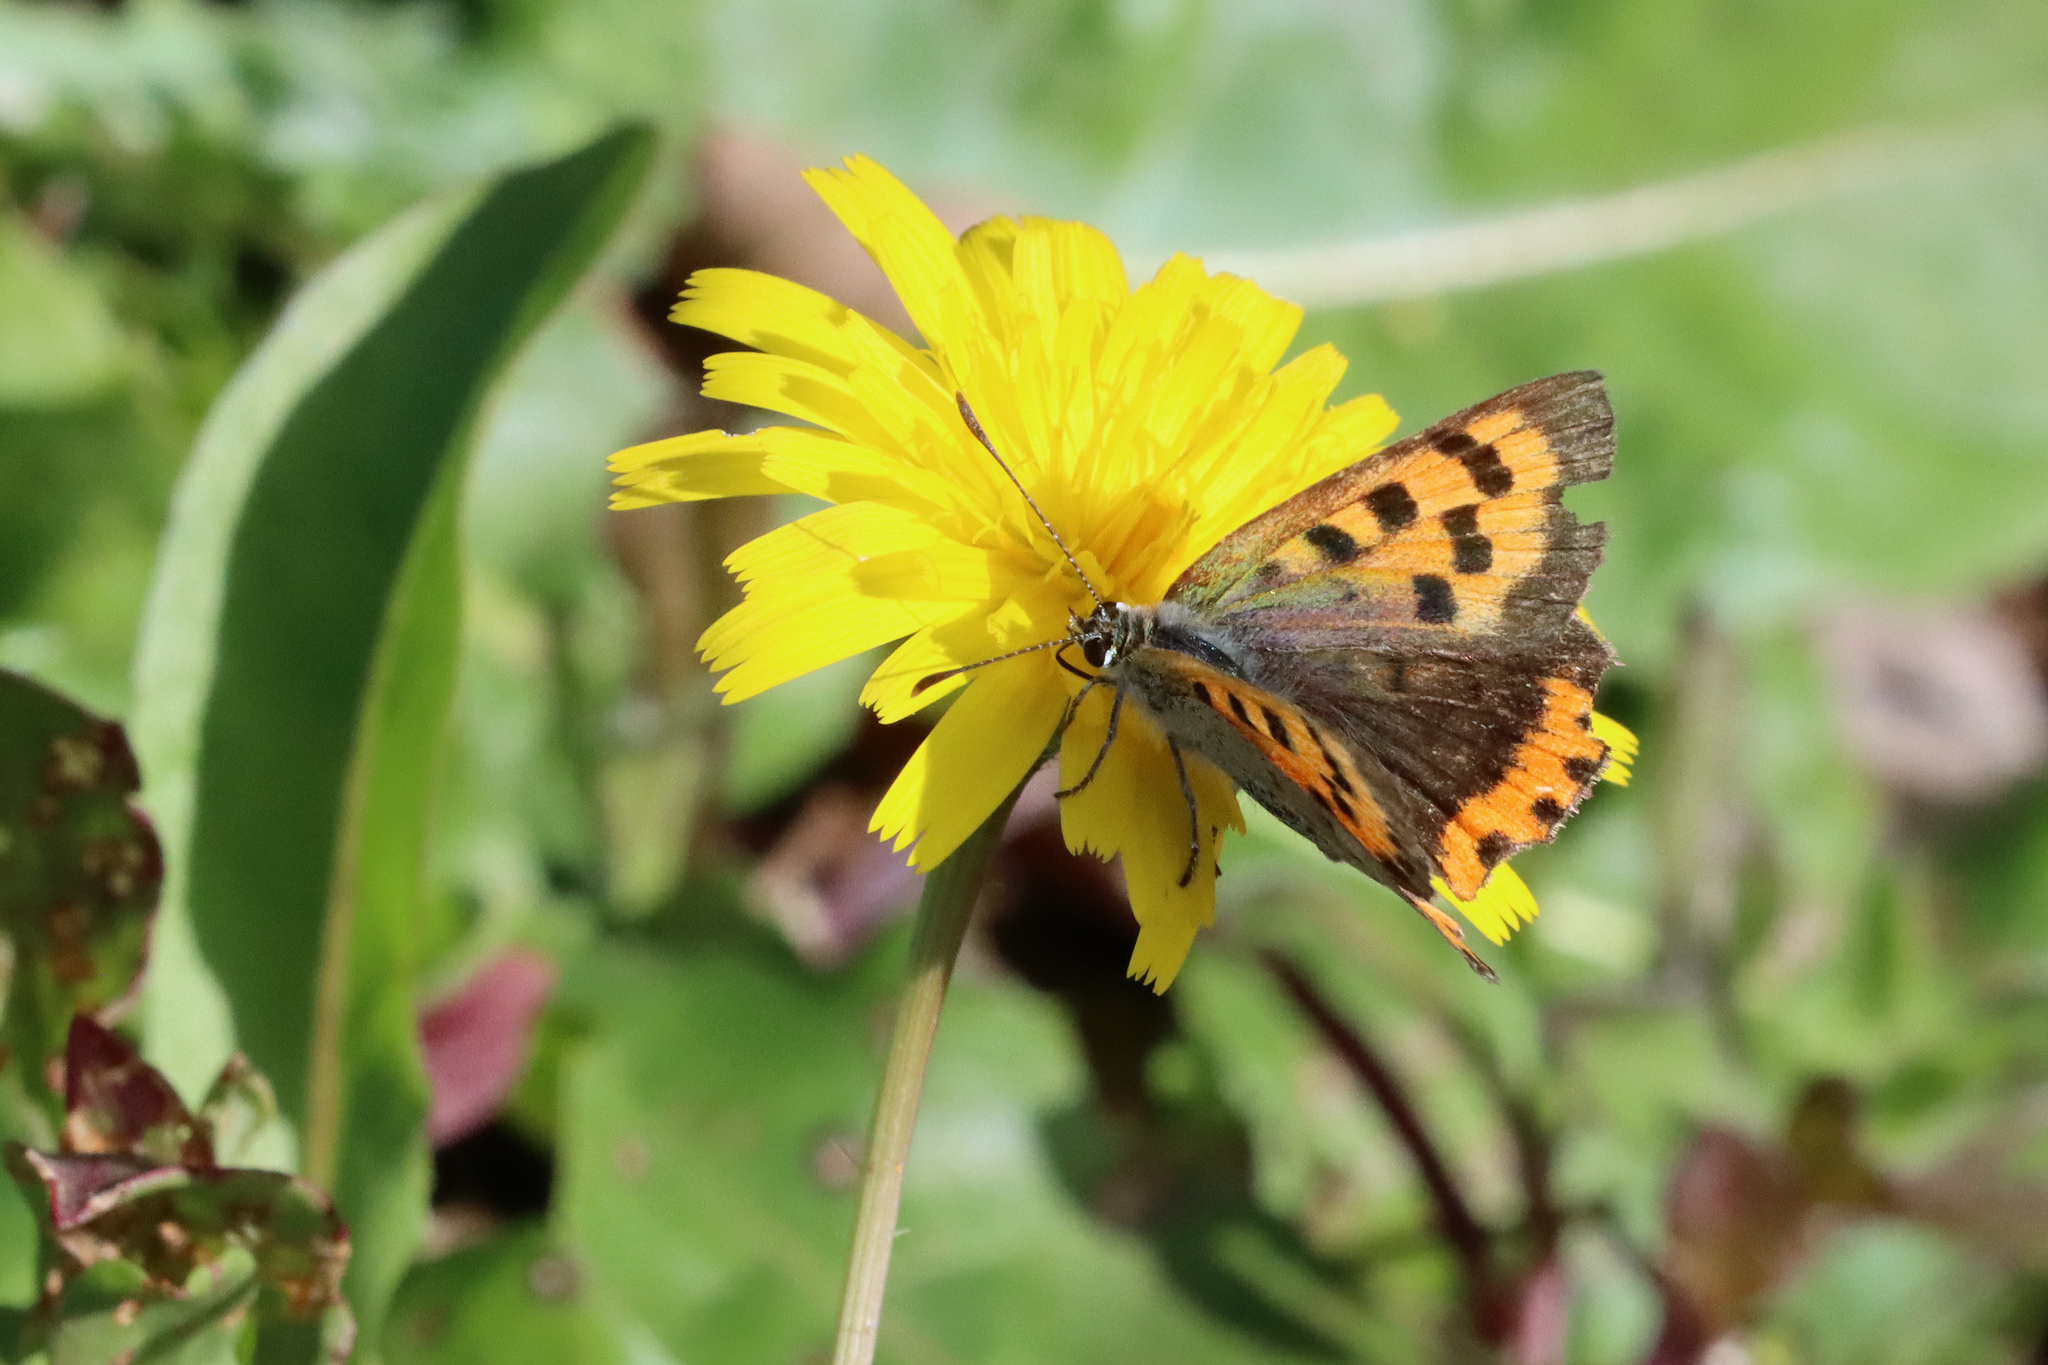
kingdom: Animalia
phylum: Arthropoda
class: Insecta
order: Lepidoptera
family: Lycaenidae
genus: Lycaena
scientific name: Lycaena phlaeas
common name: Small copper
